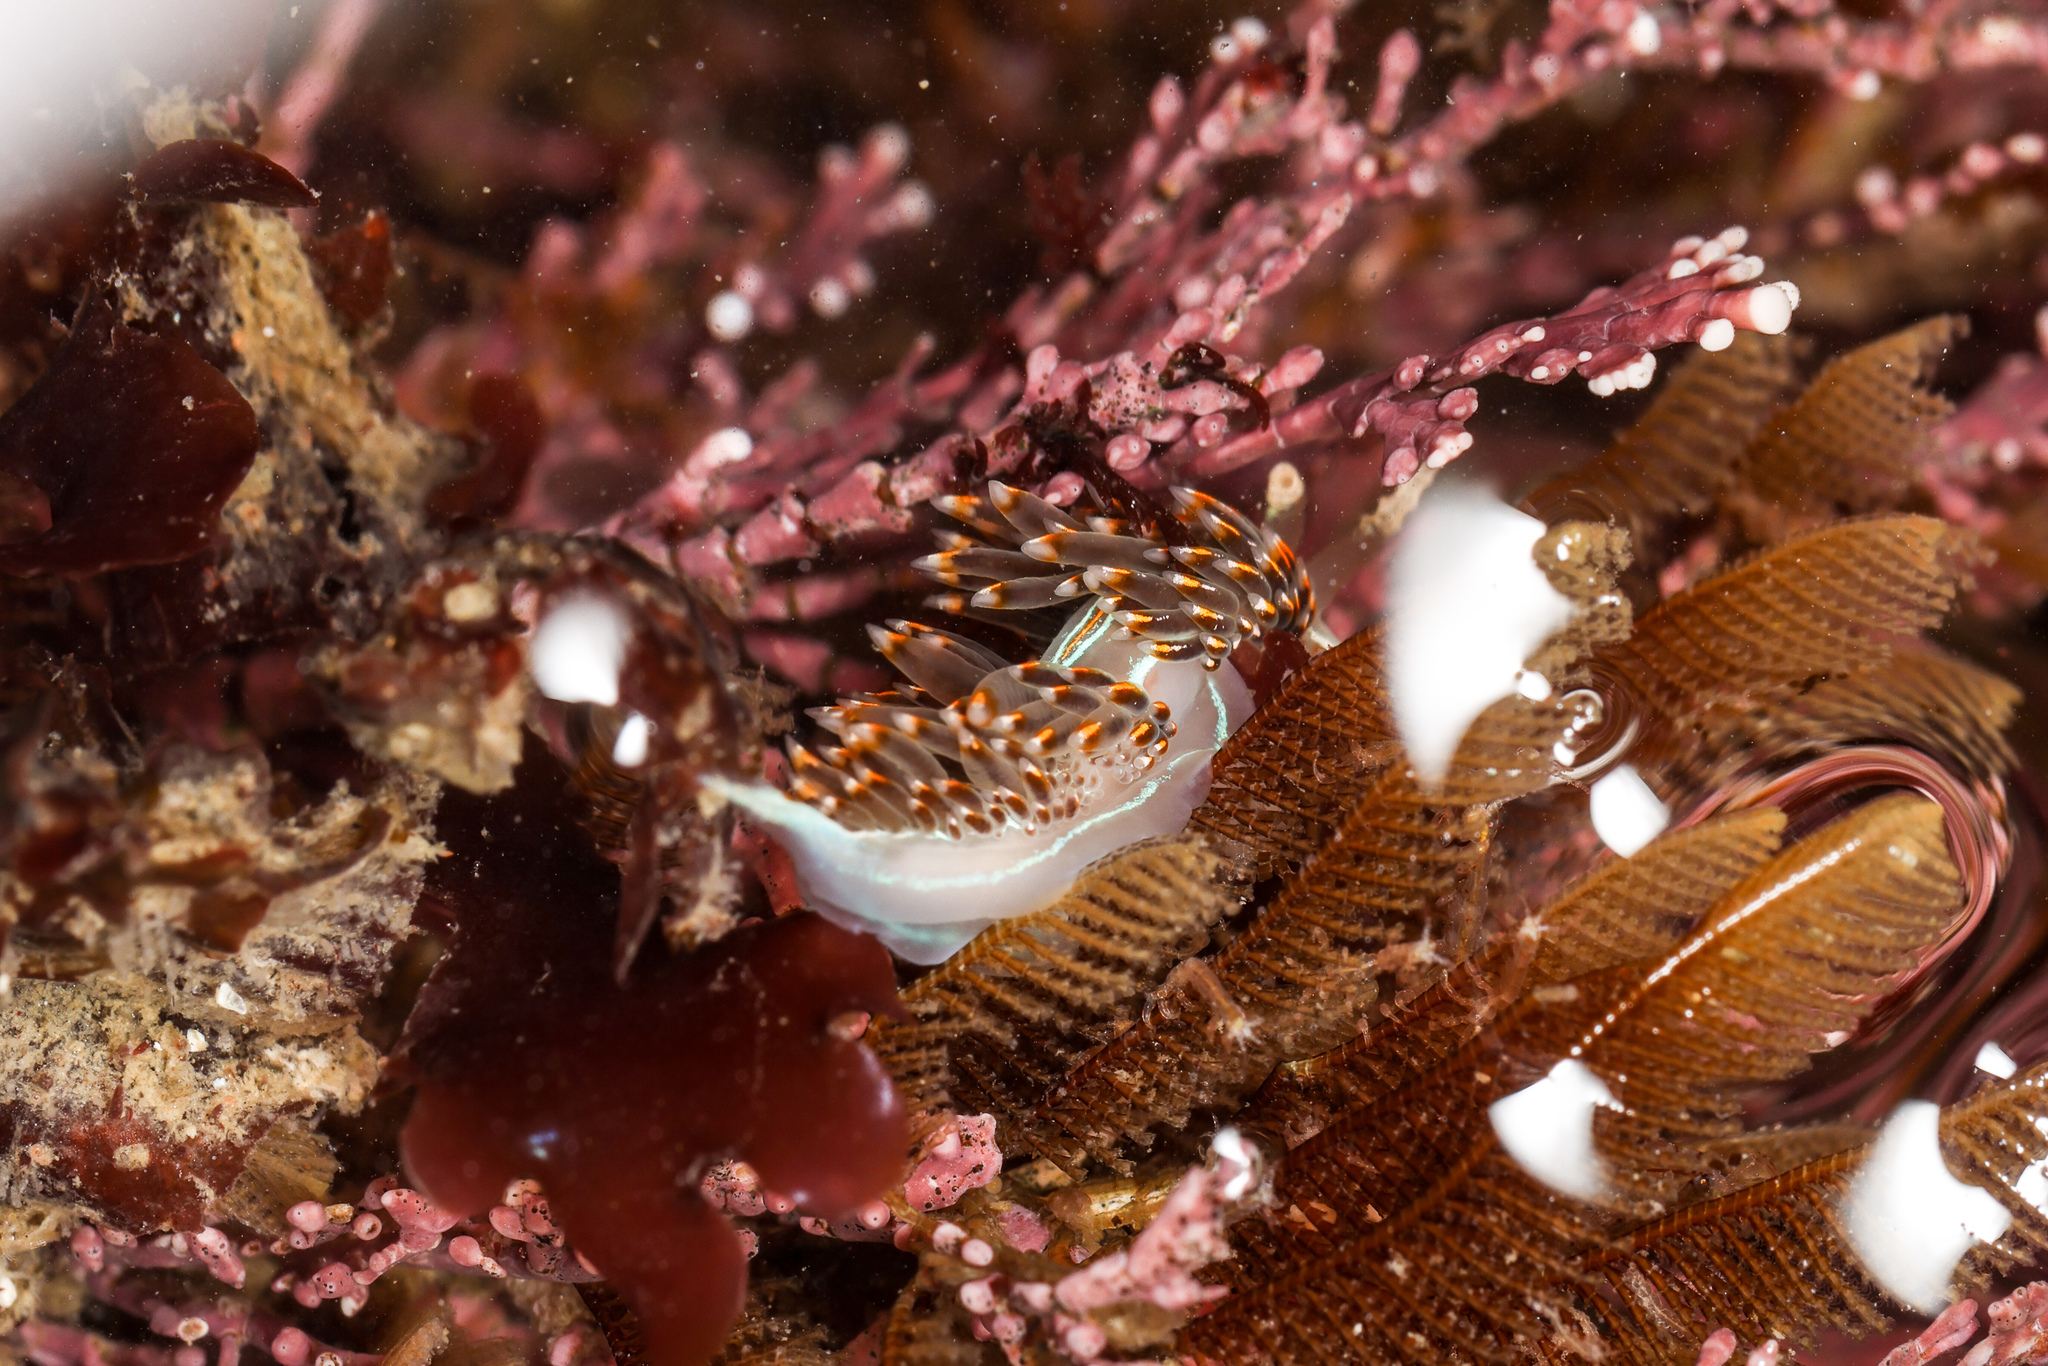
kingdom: Animalia
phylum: Mollusca
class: Gastropoda
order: Nudibranchia
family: Myrrhinidae
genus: Hermissenda
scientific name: Hermissenda opalescens
